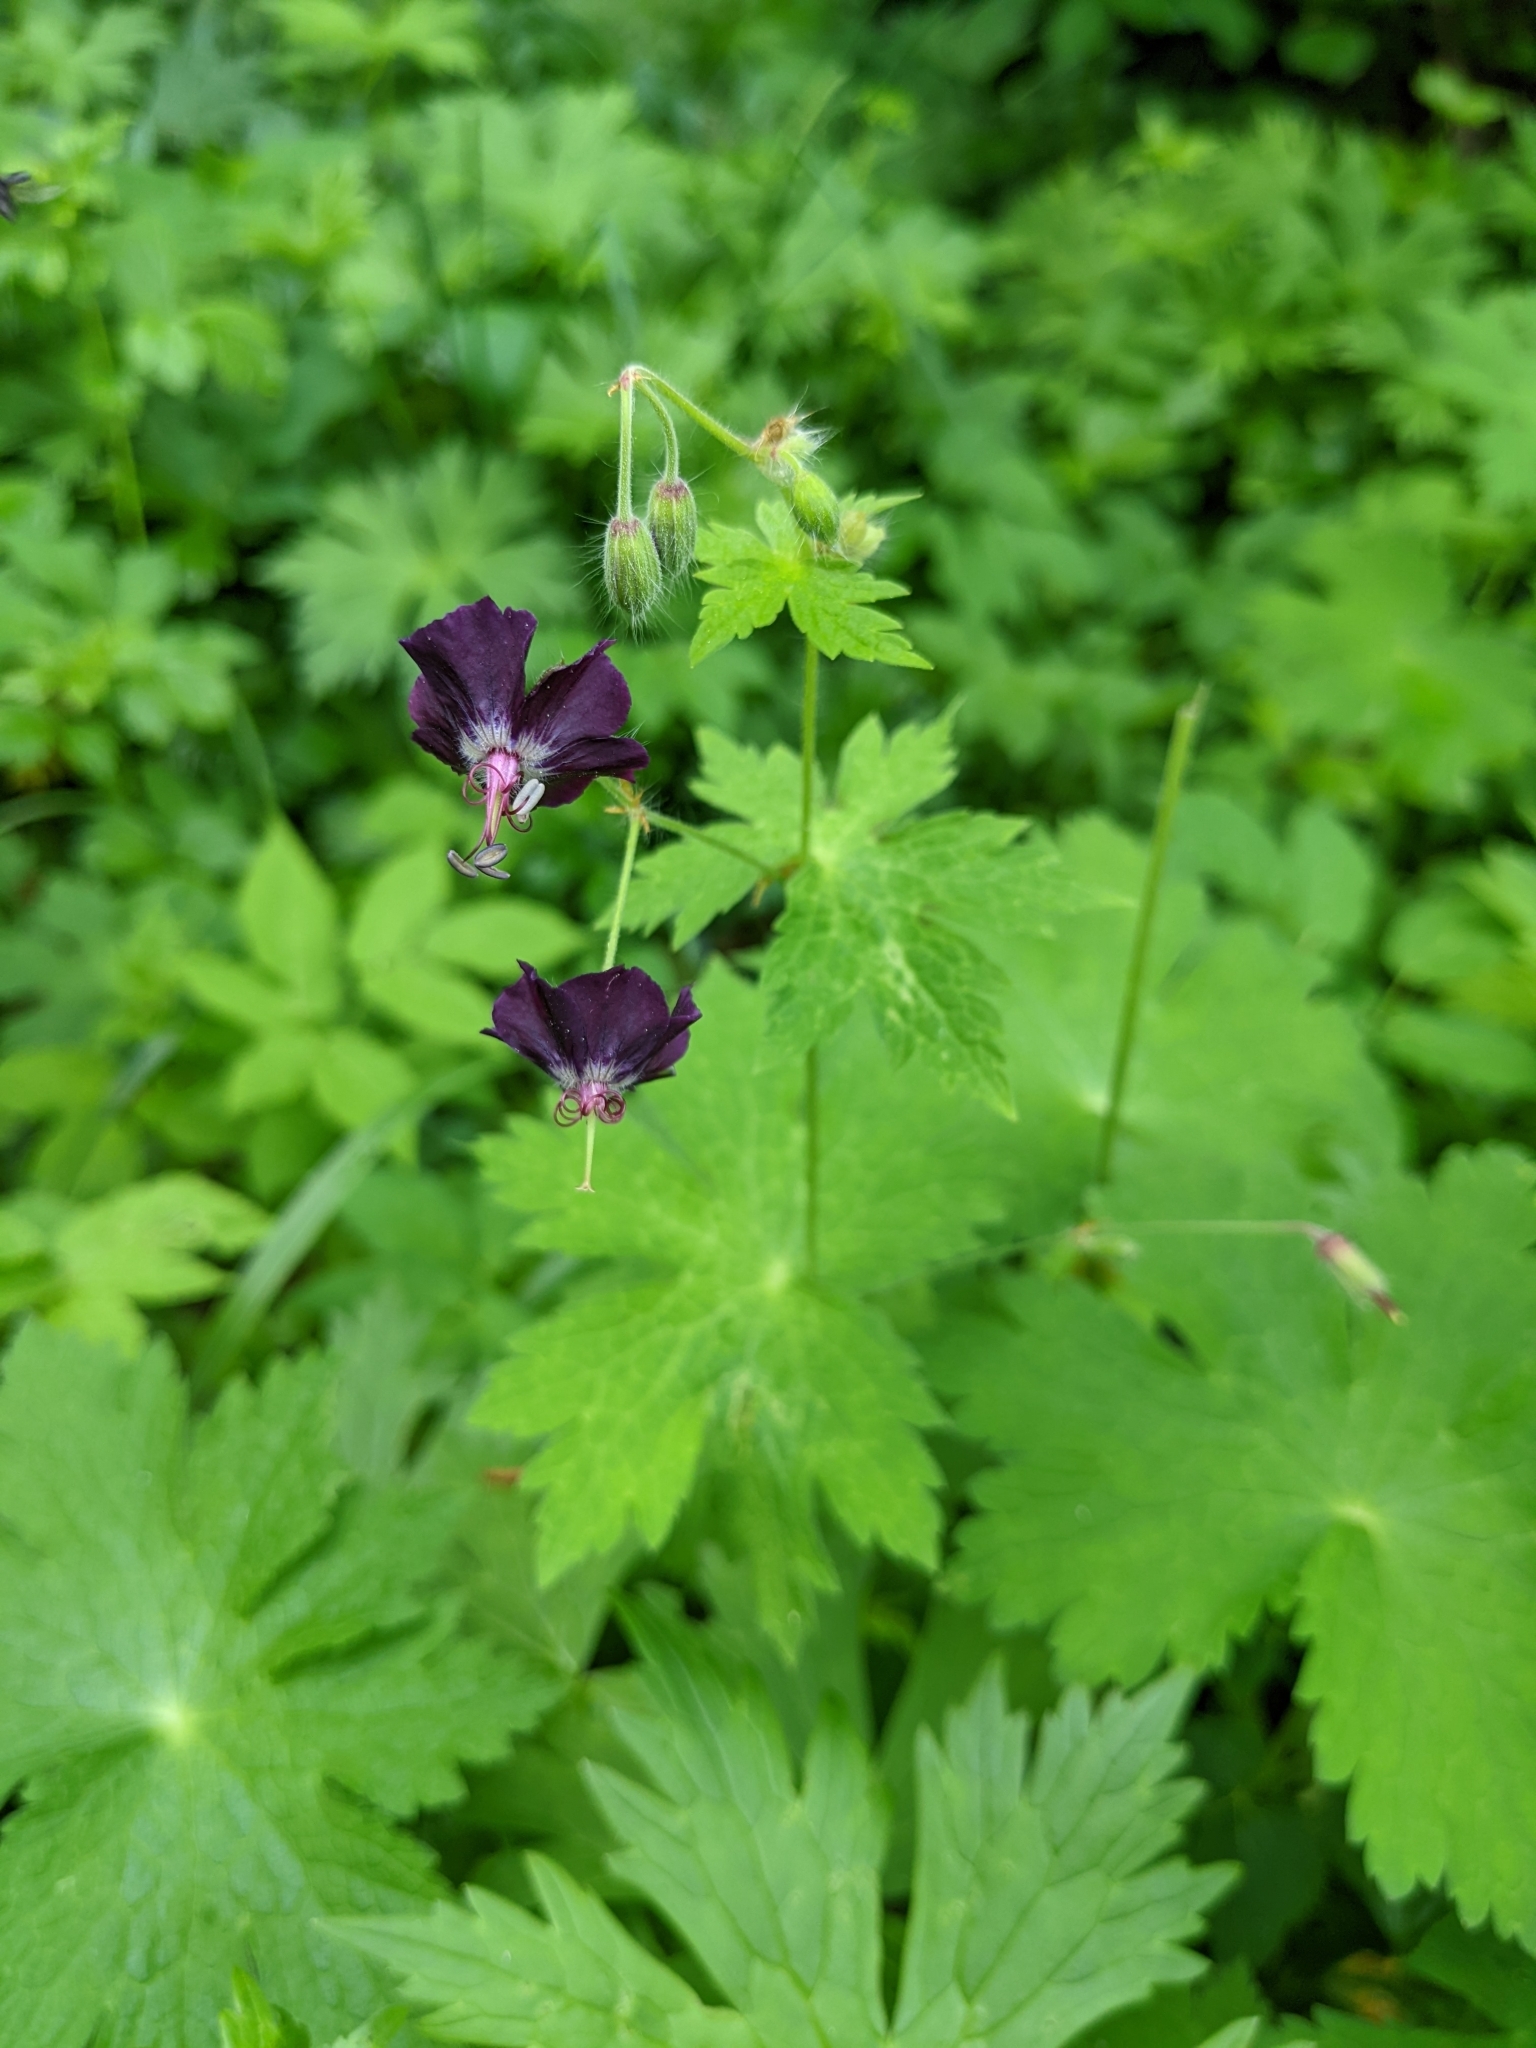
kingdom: Plantae
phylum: Tracheophyta
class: Magnoliopsida
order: Geraniales
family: Geraniaceae
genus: Geranium
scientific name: Geranium phaeum
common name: Dusky crane's-bill
